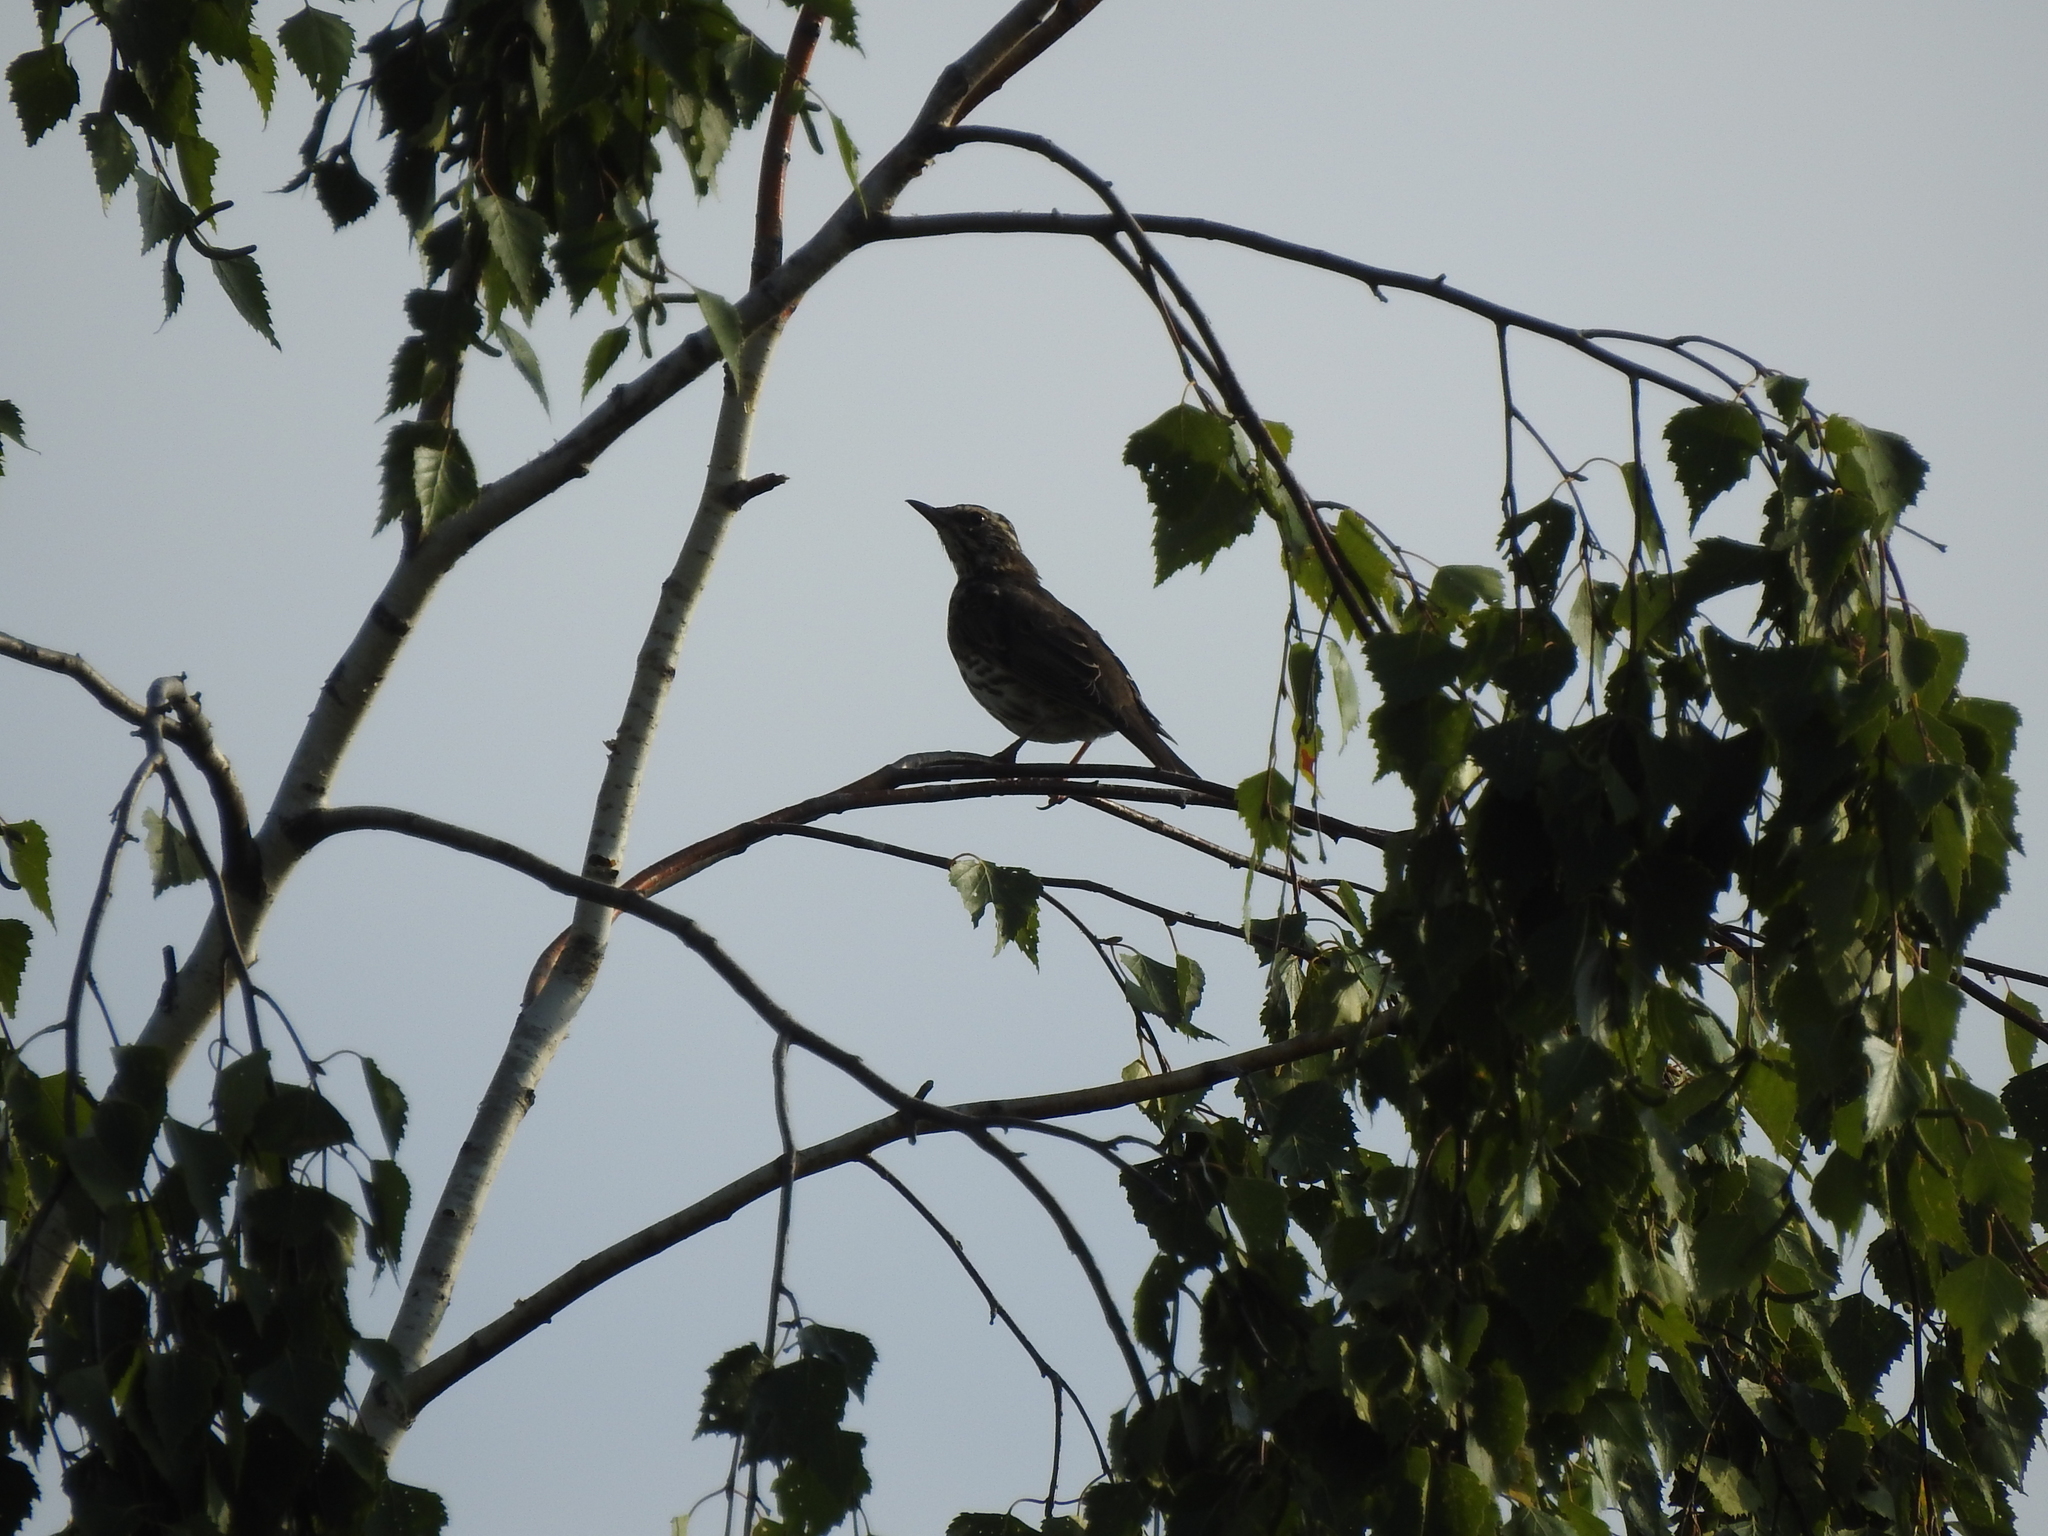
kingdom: Animalia
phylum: Chordata
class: Aves
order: Passeriformes
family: Turdidae
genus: Turdus
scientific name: Turdus iliacus
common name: Redwing
